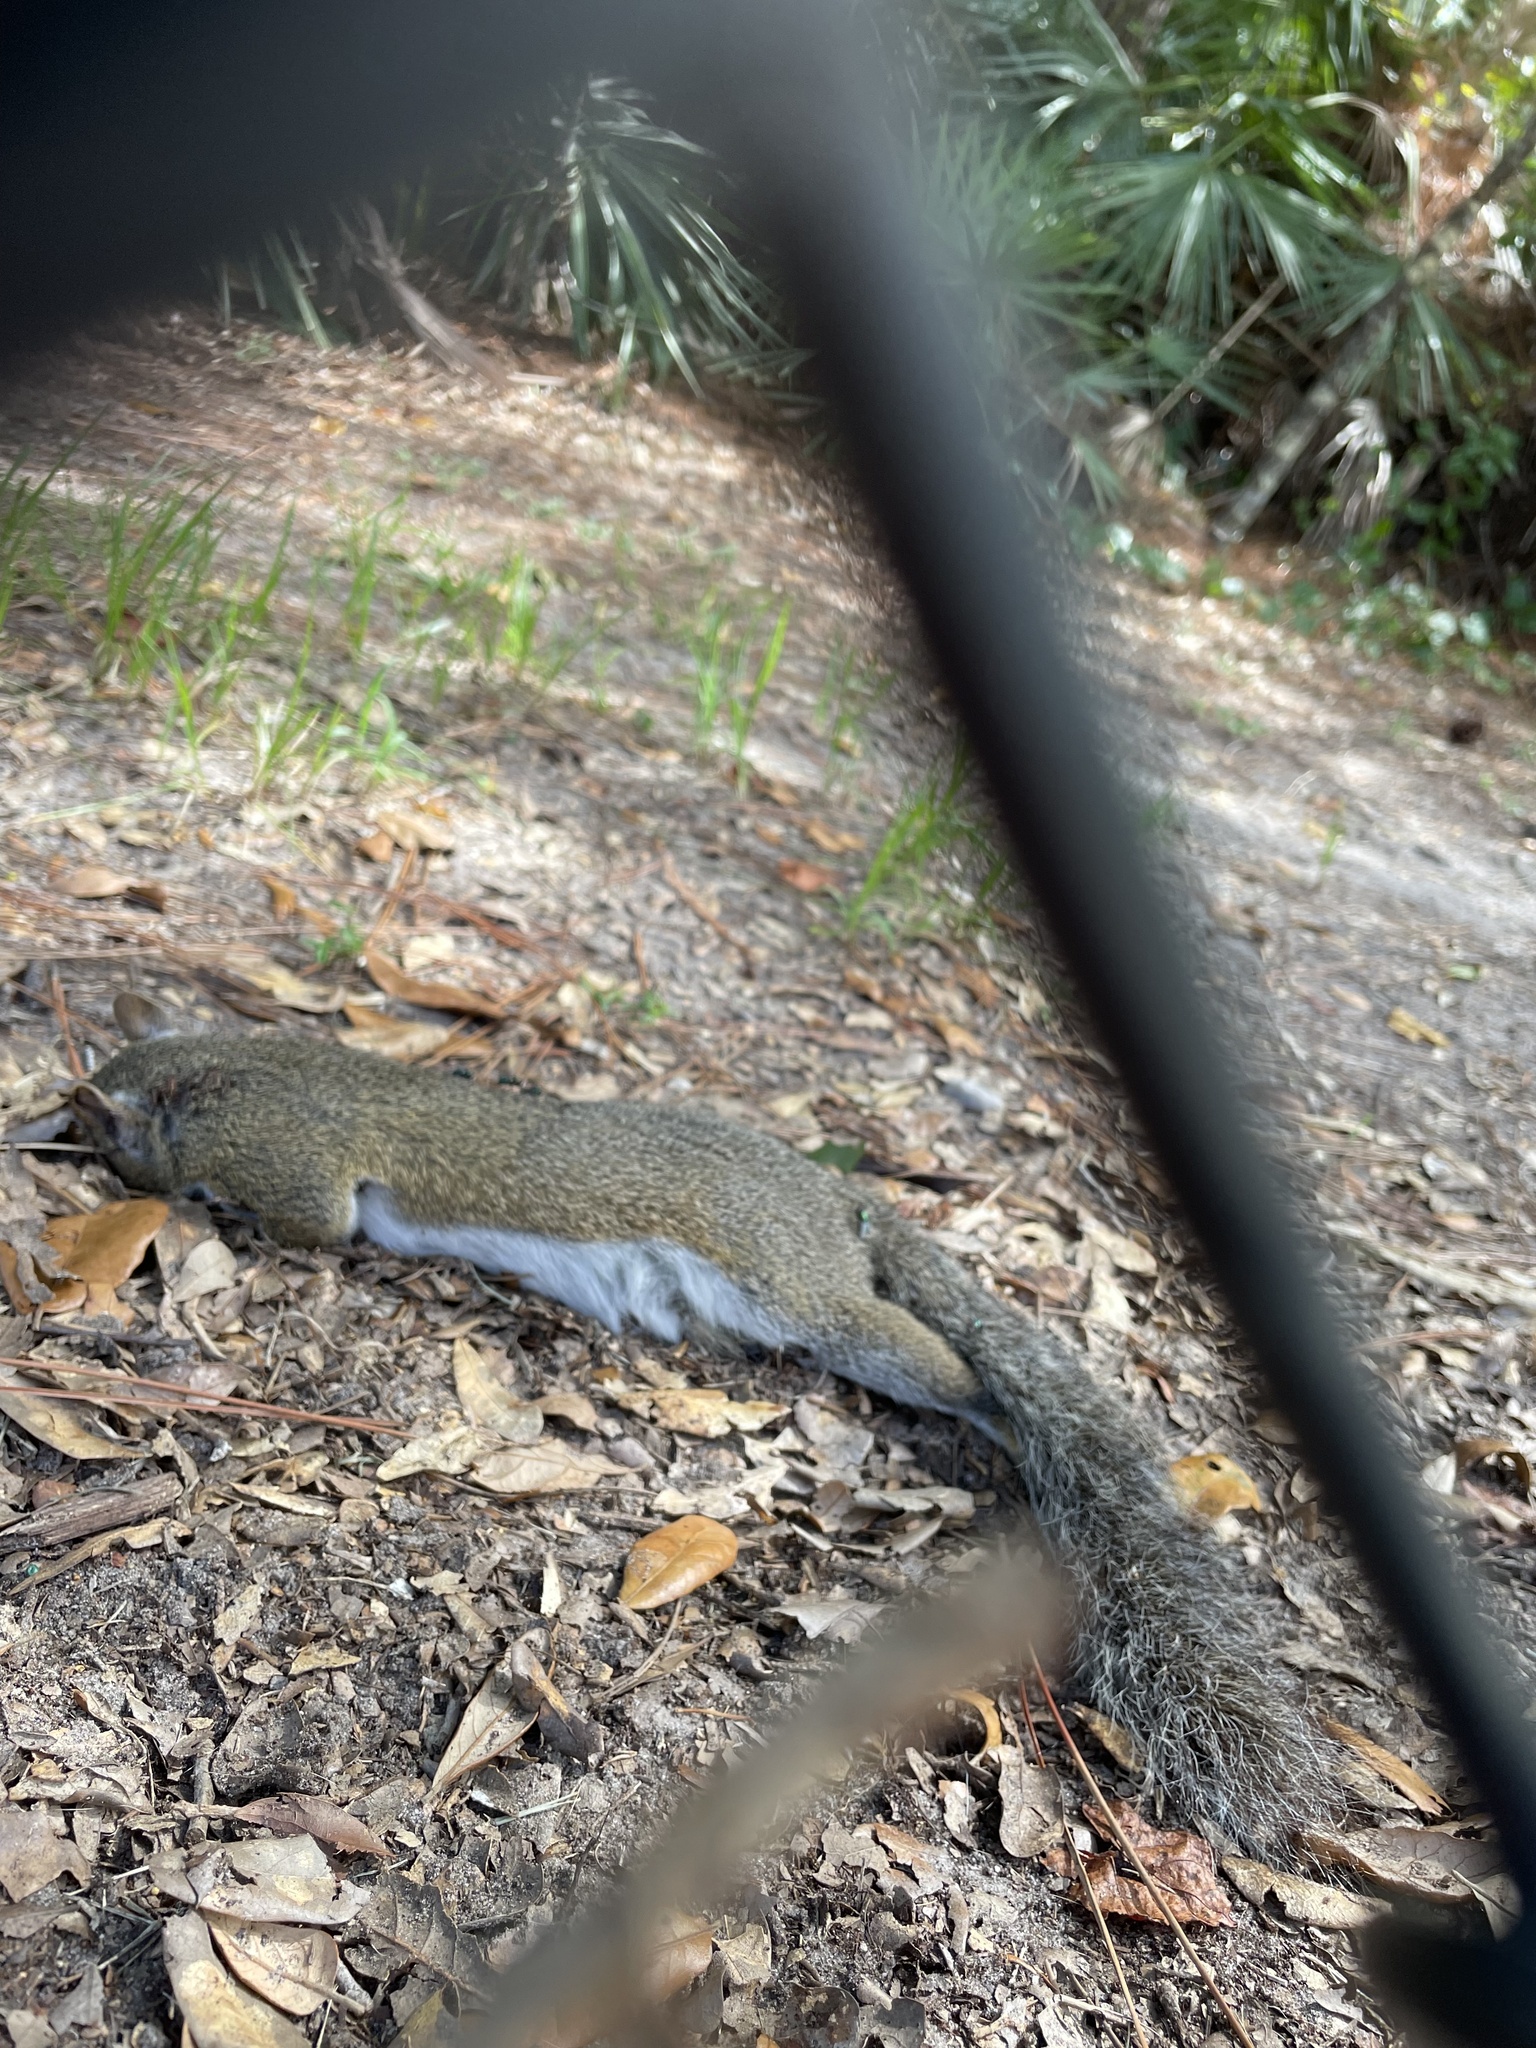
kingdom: Animalia
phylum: Chordata
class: Mammalia
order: Rodentia
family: Sciuridae
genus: Sciurus
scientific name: Sciurus carolinensis
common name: Eastern gray squirrel
